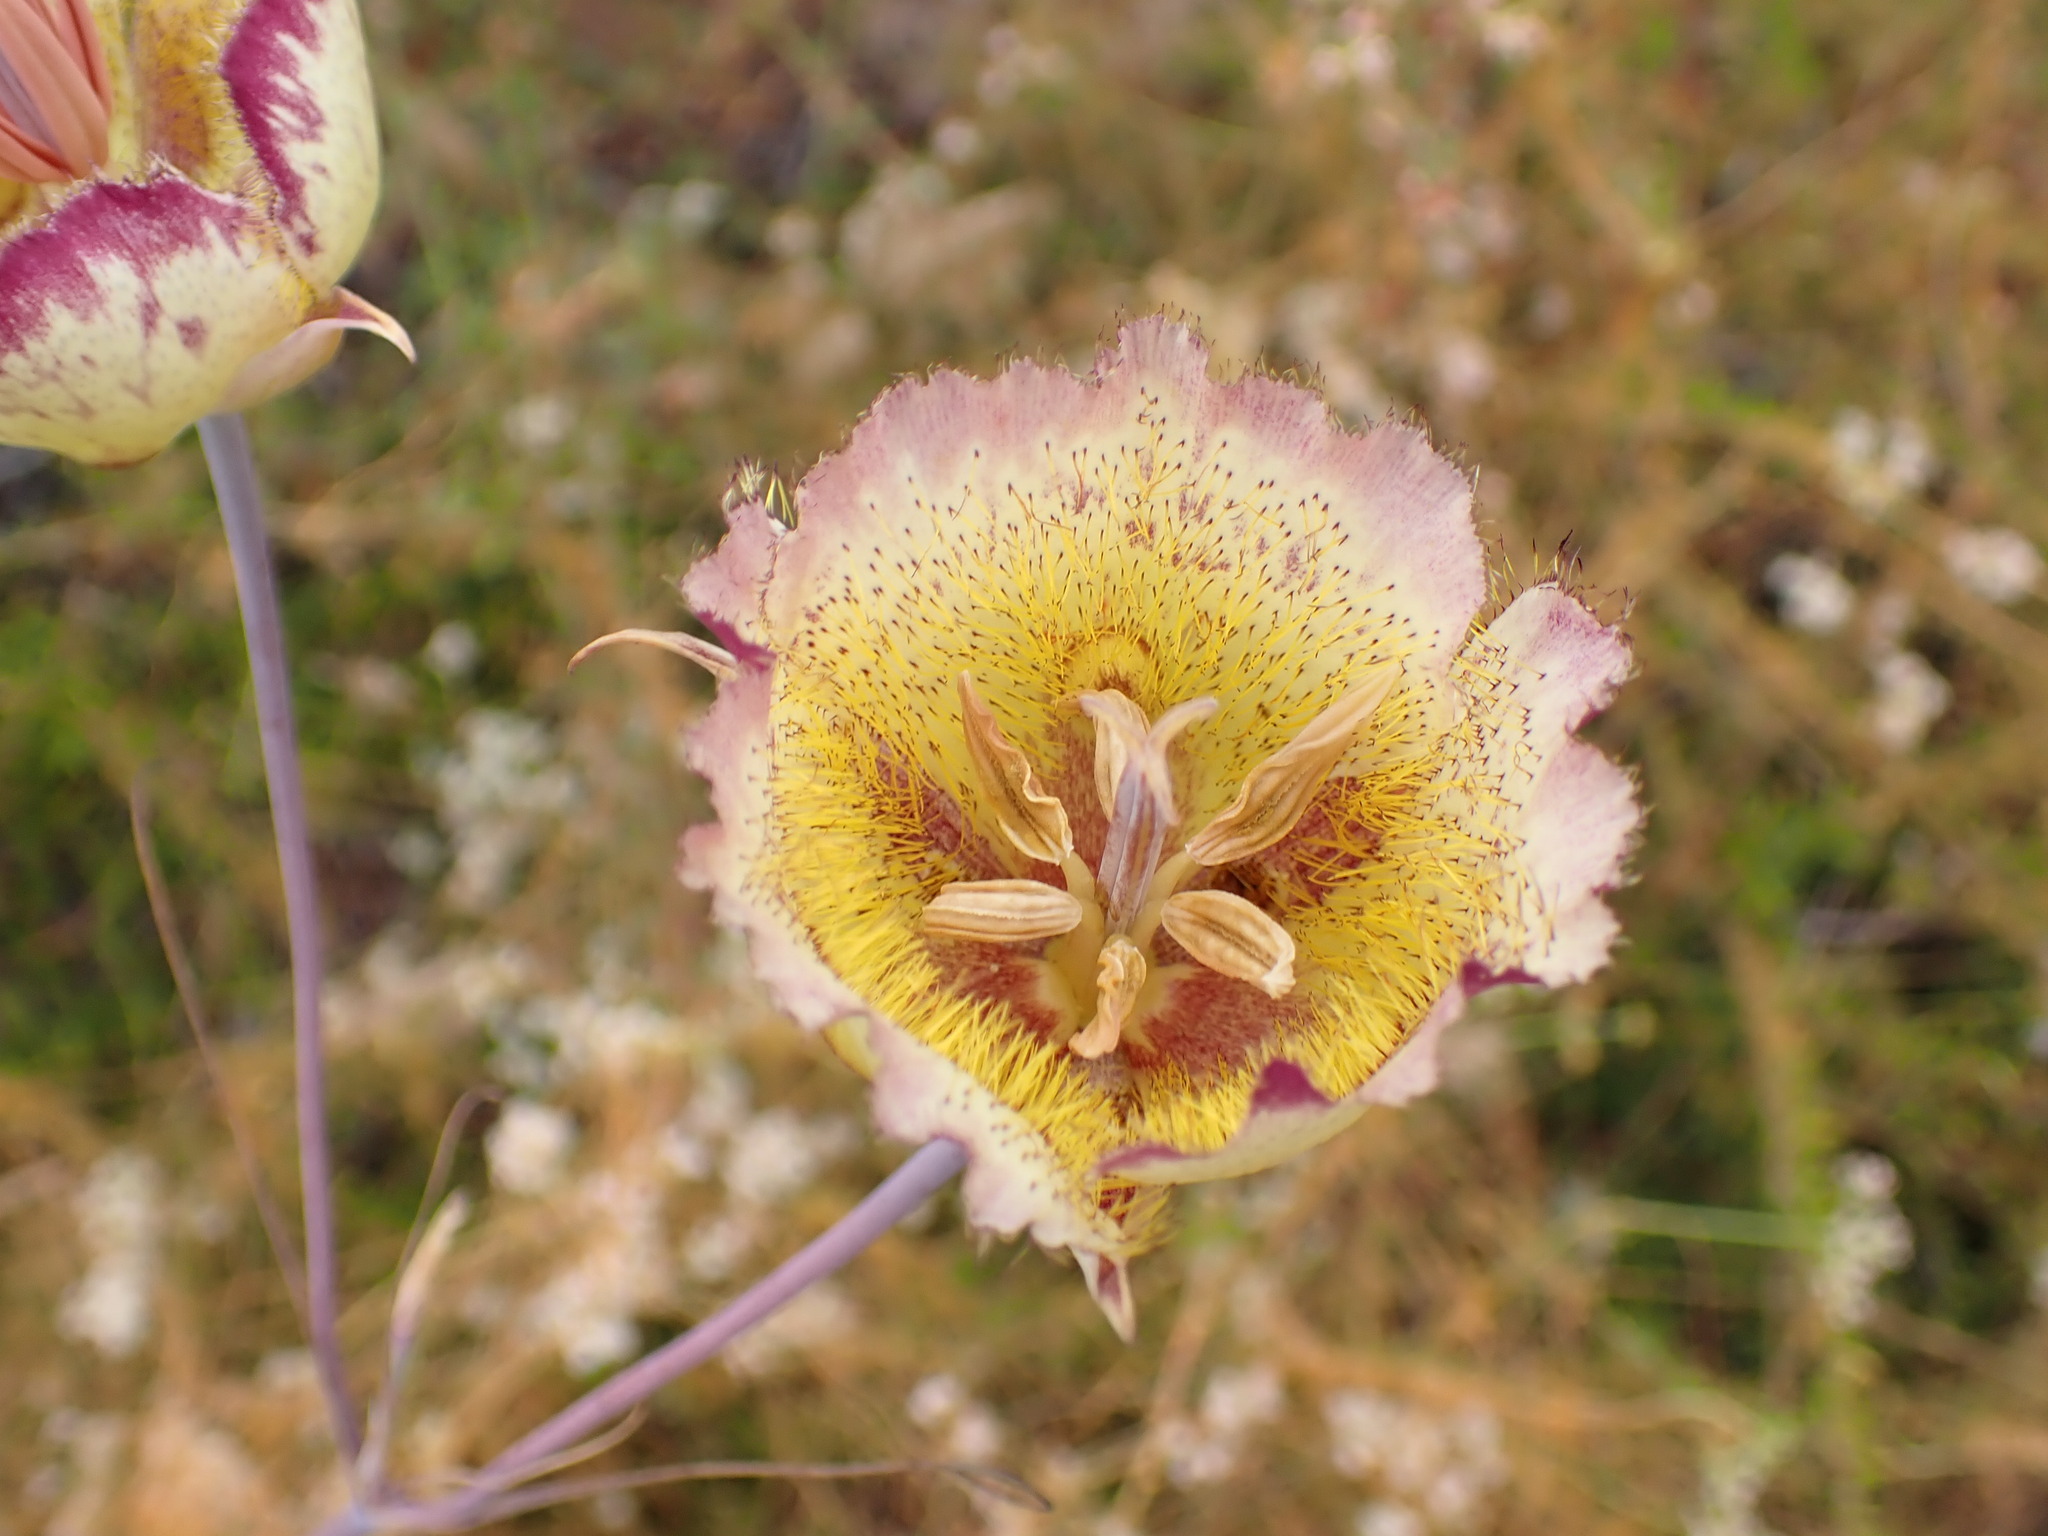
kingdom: Plantae
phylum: Tracheophyta
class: Liliopsida
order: Liliales
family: Liliaceae
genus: Calochortus
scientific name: Calochortus weedii
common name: Weed's mariposa-lily
